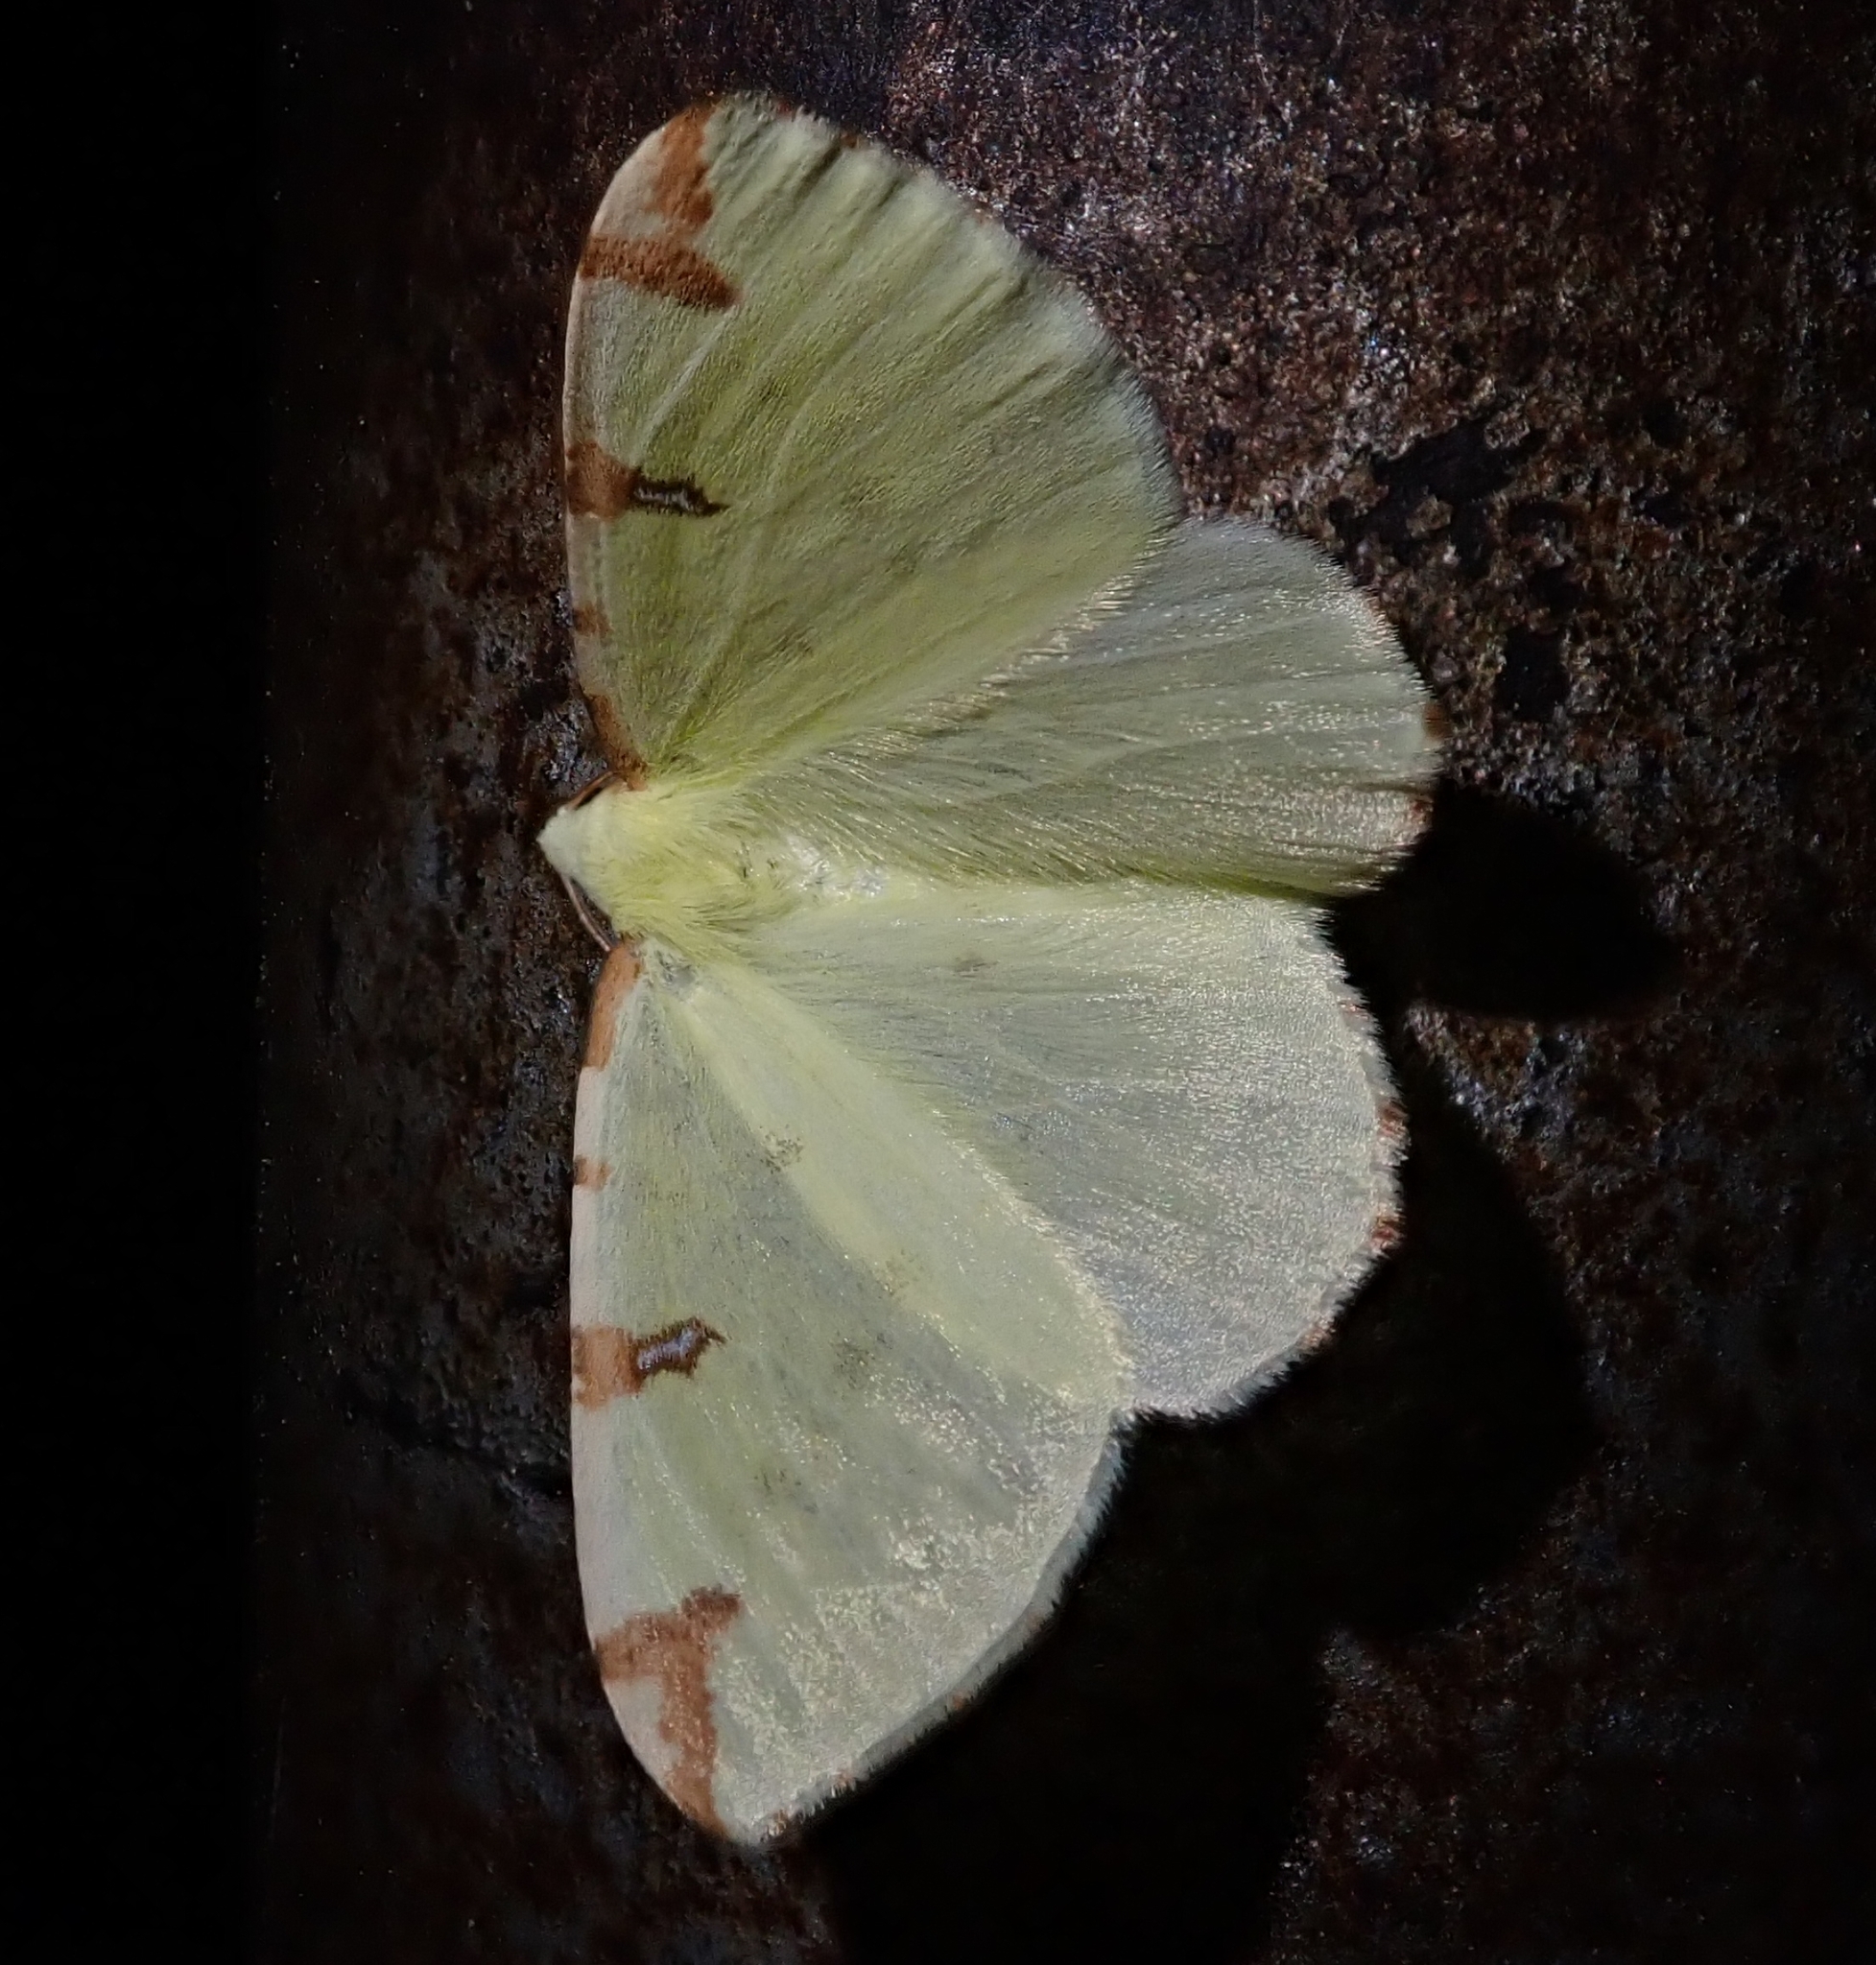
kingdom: Animalia
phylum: Arthropoda
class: Insecta
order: Lepidoptera
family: Geometridae
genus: Opisthograptis
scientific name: Opisthograptis luteolata
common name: Brimstone moth
